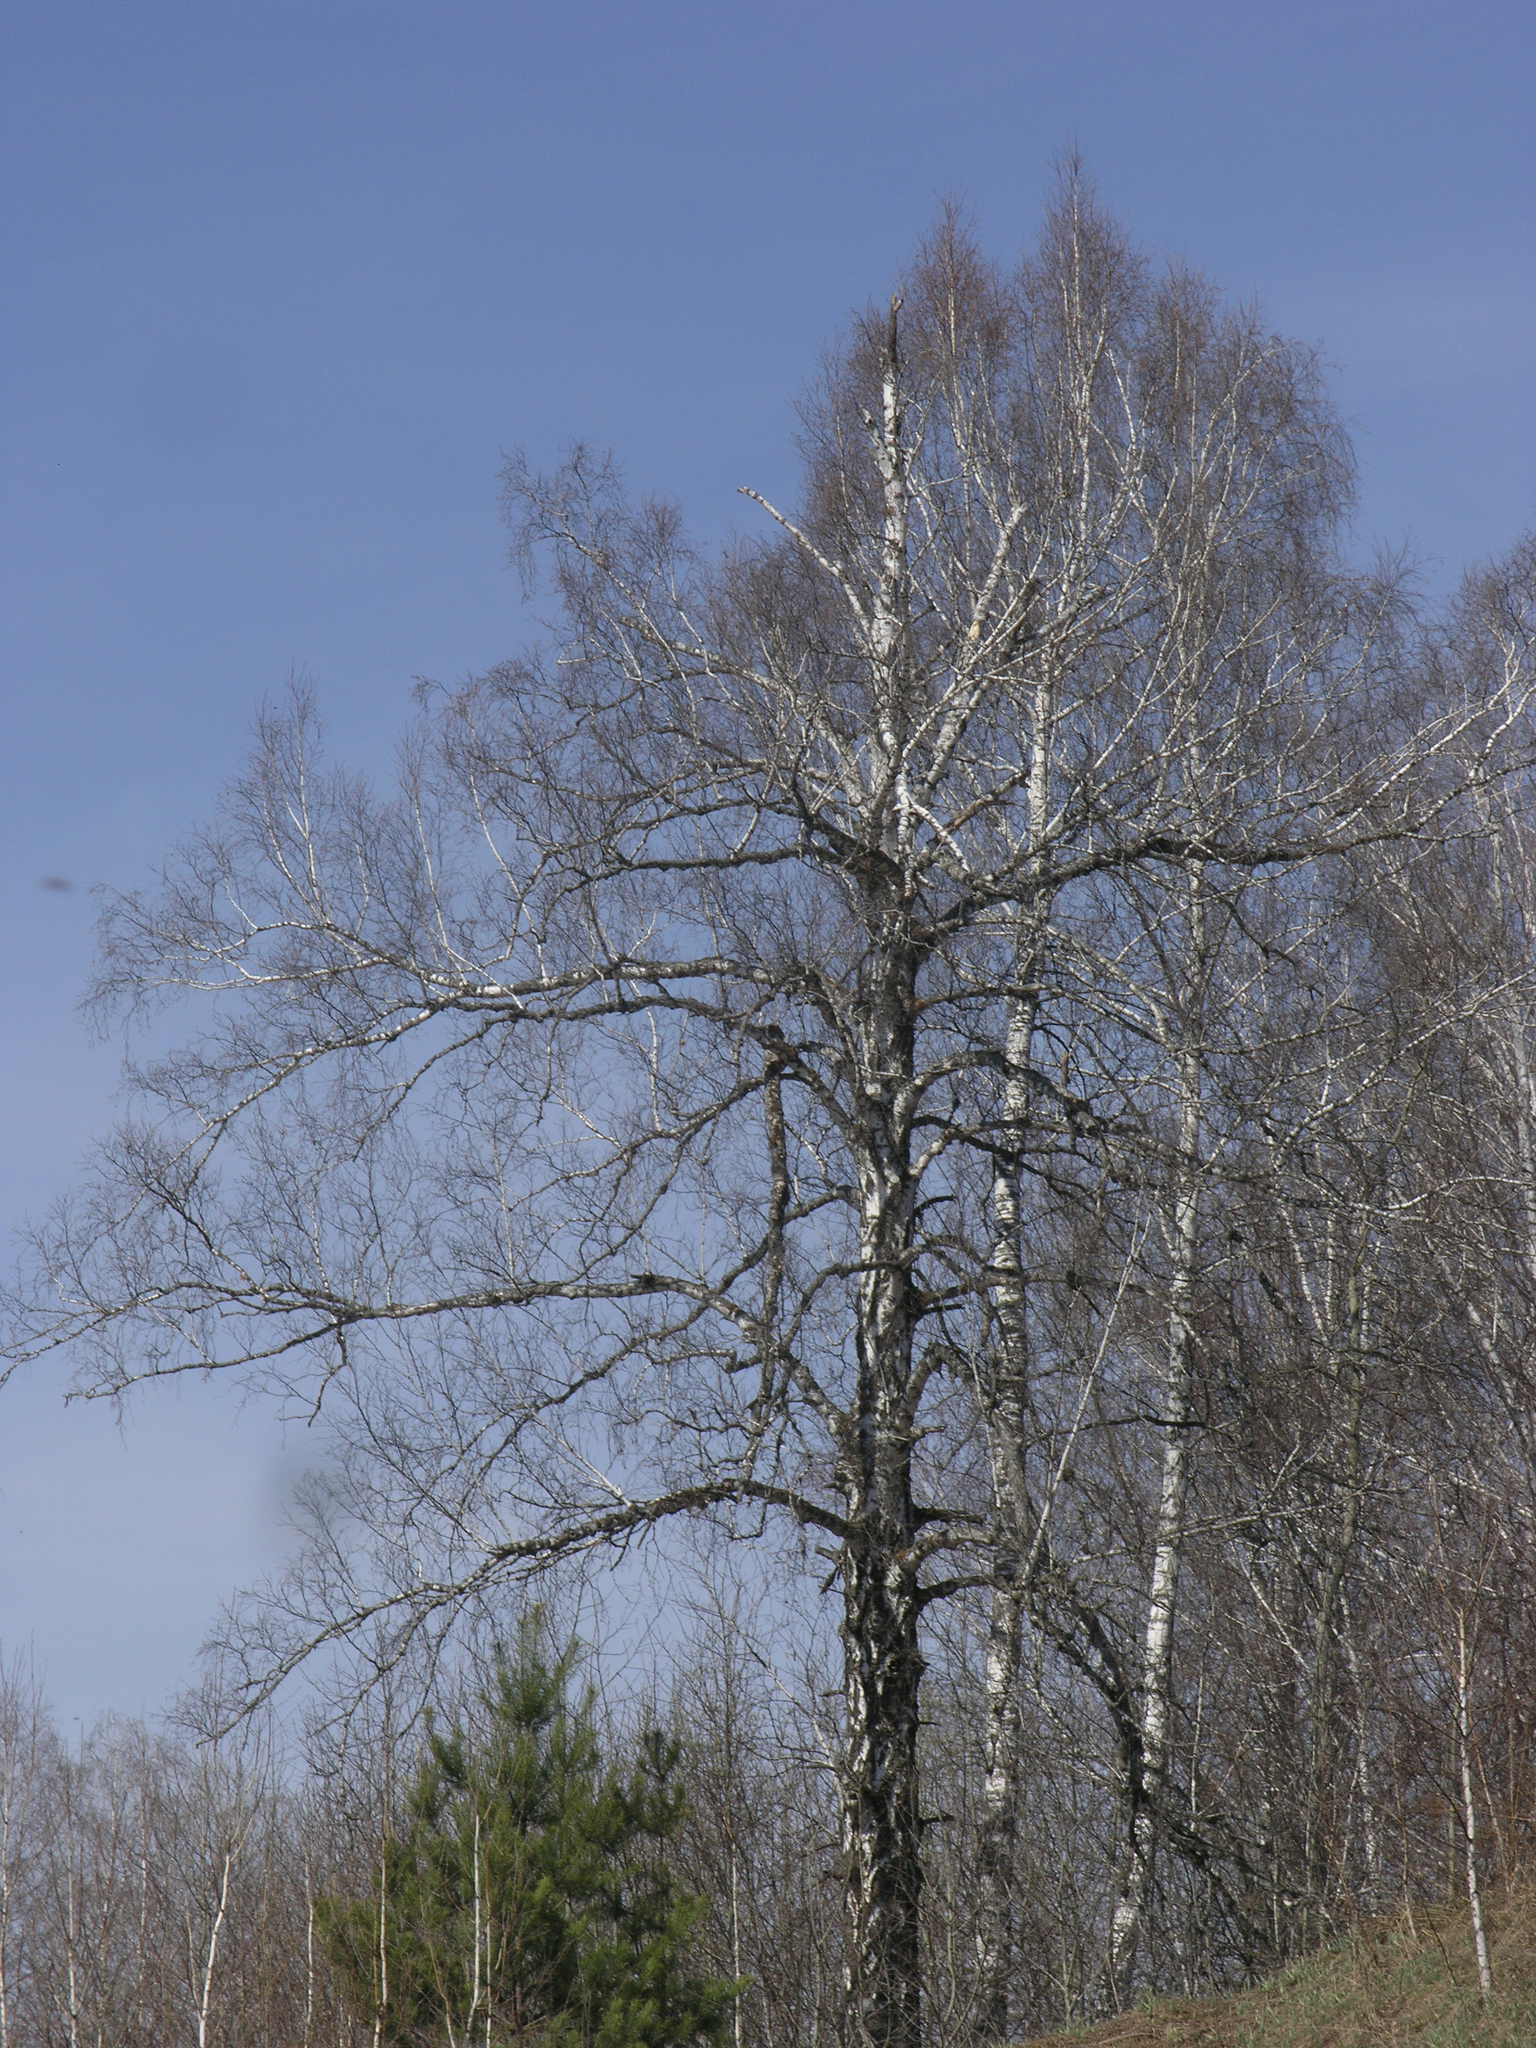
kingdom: Plantae
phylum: Tracheophyta
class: Magnoliopsida
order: Fagales
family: Betulaceae
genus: Betula
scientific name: Betula pendula
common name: Silver birch
